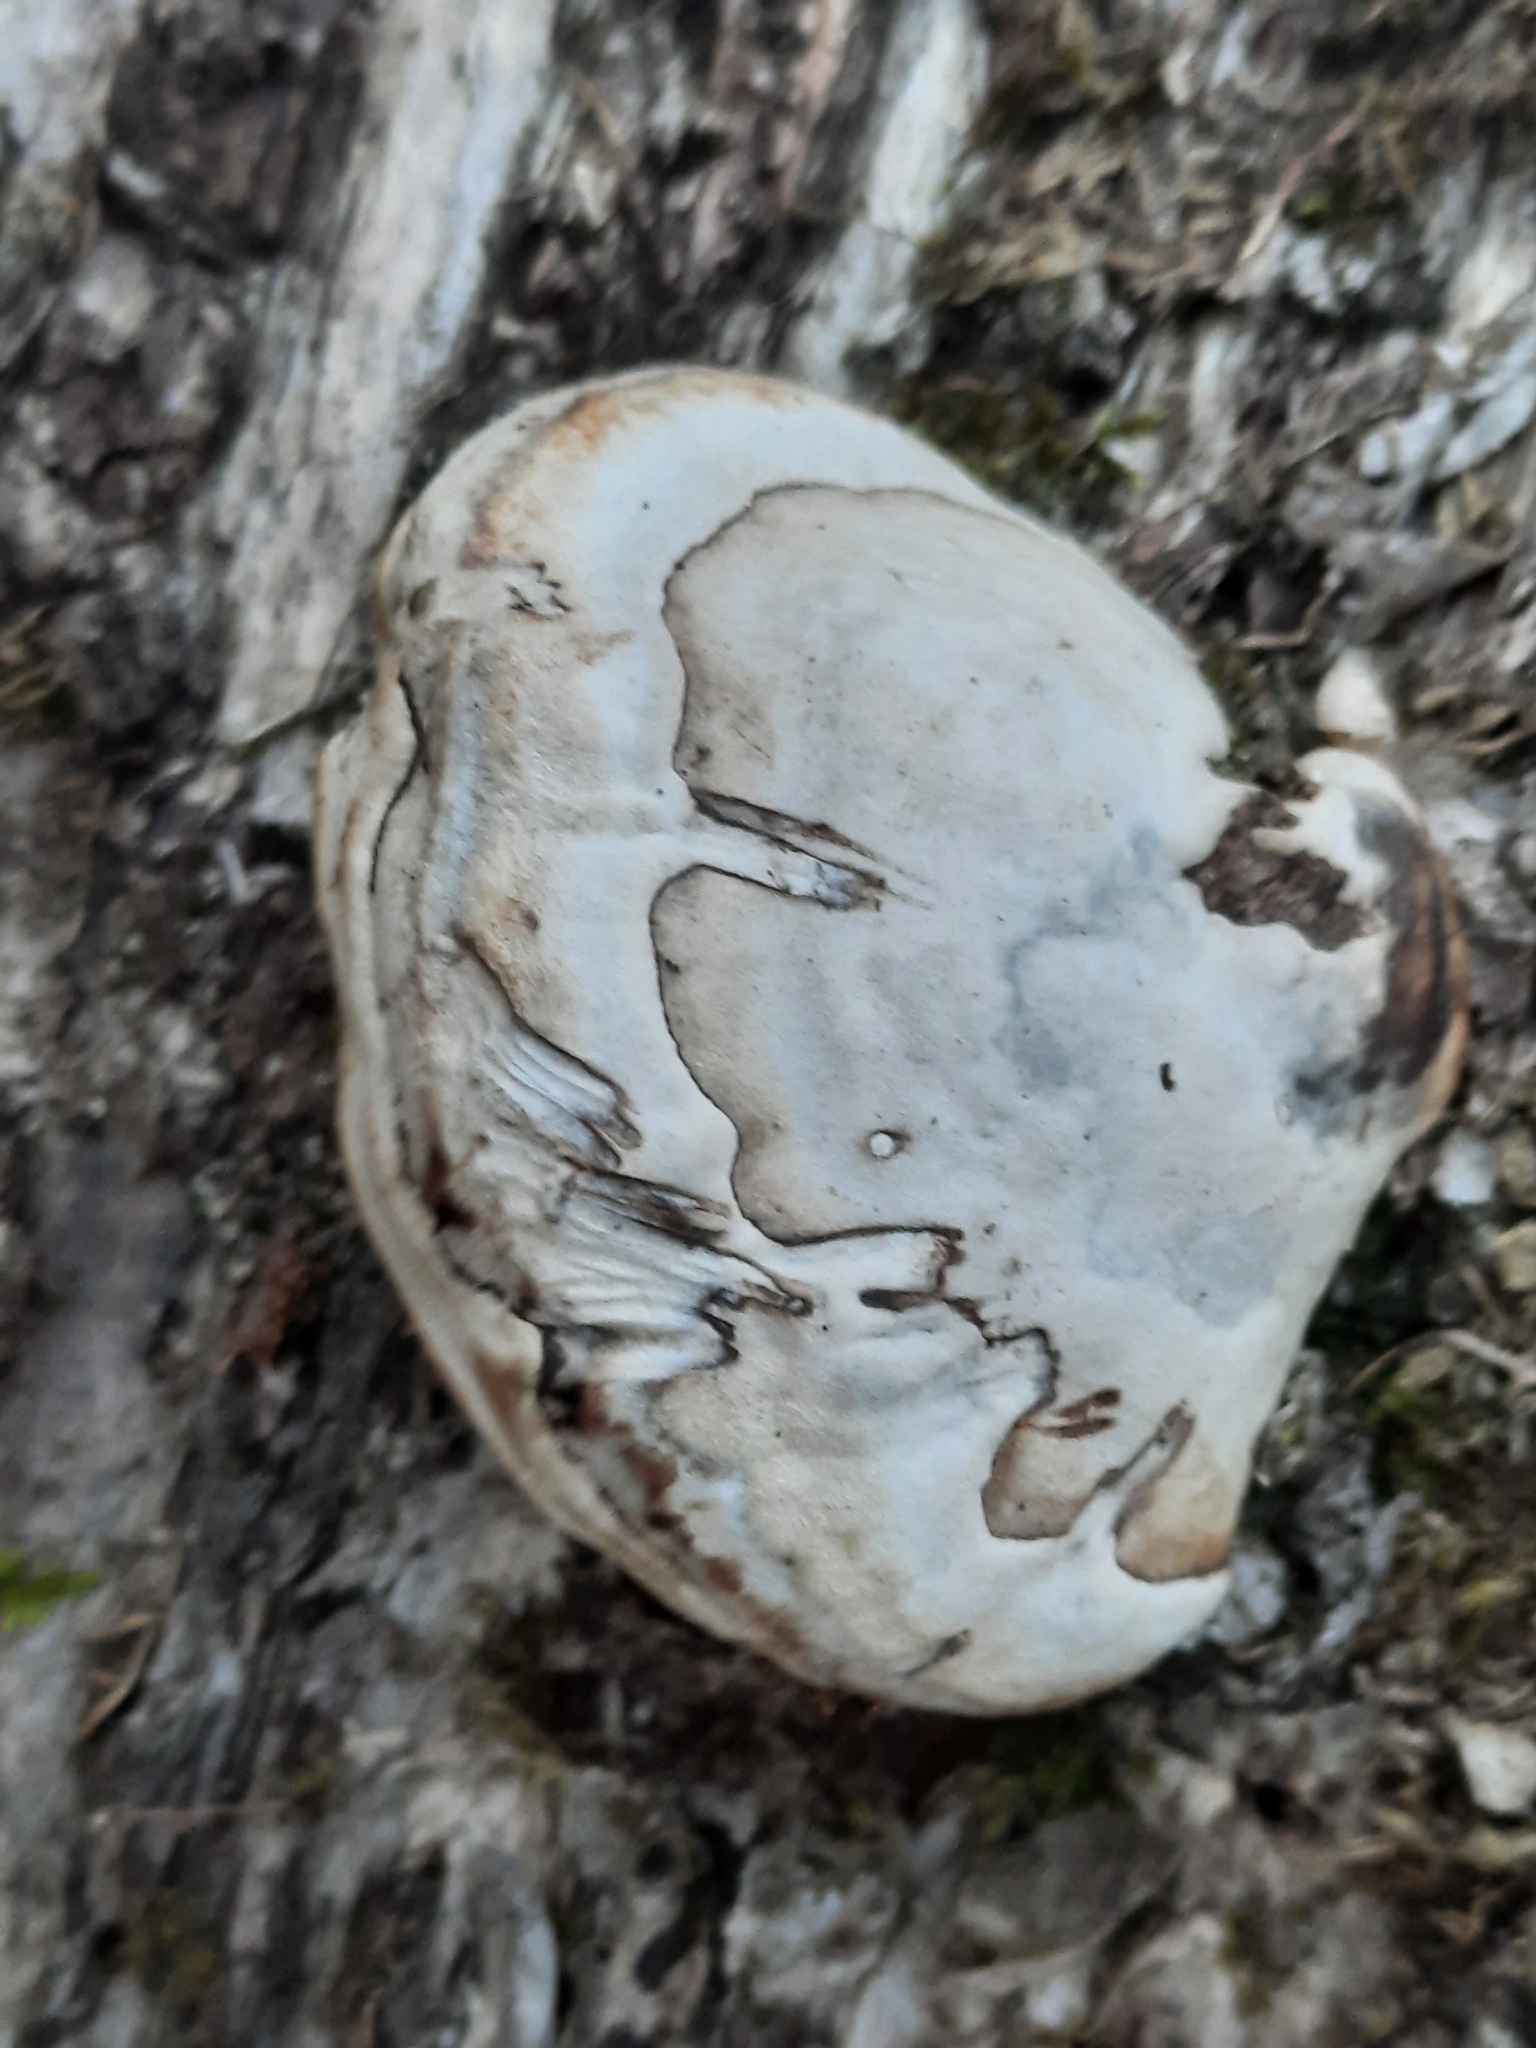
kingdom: Fungi
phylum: Basidiomycota
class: Agaricomycetes
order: Polyporales
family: Polyporaceae
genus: Fomes
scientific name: Fomes fomentarius
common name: Hoof fungus
